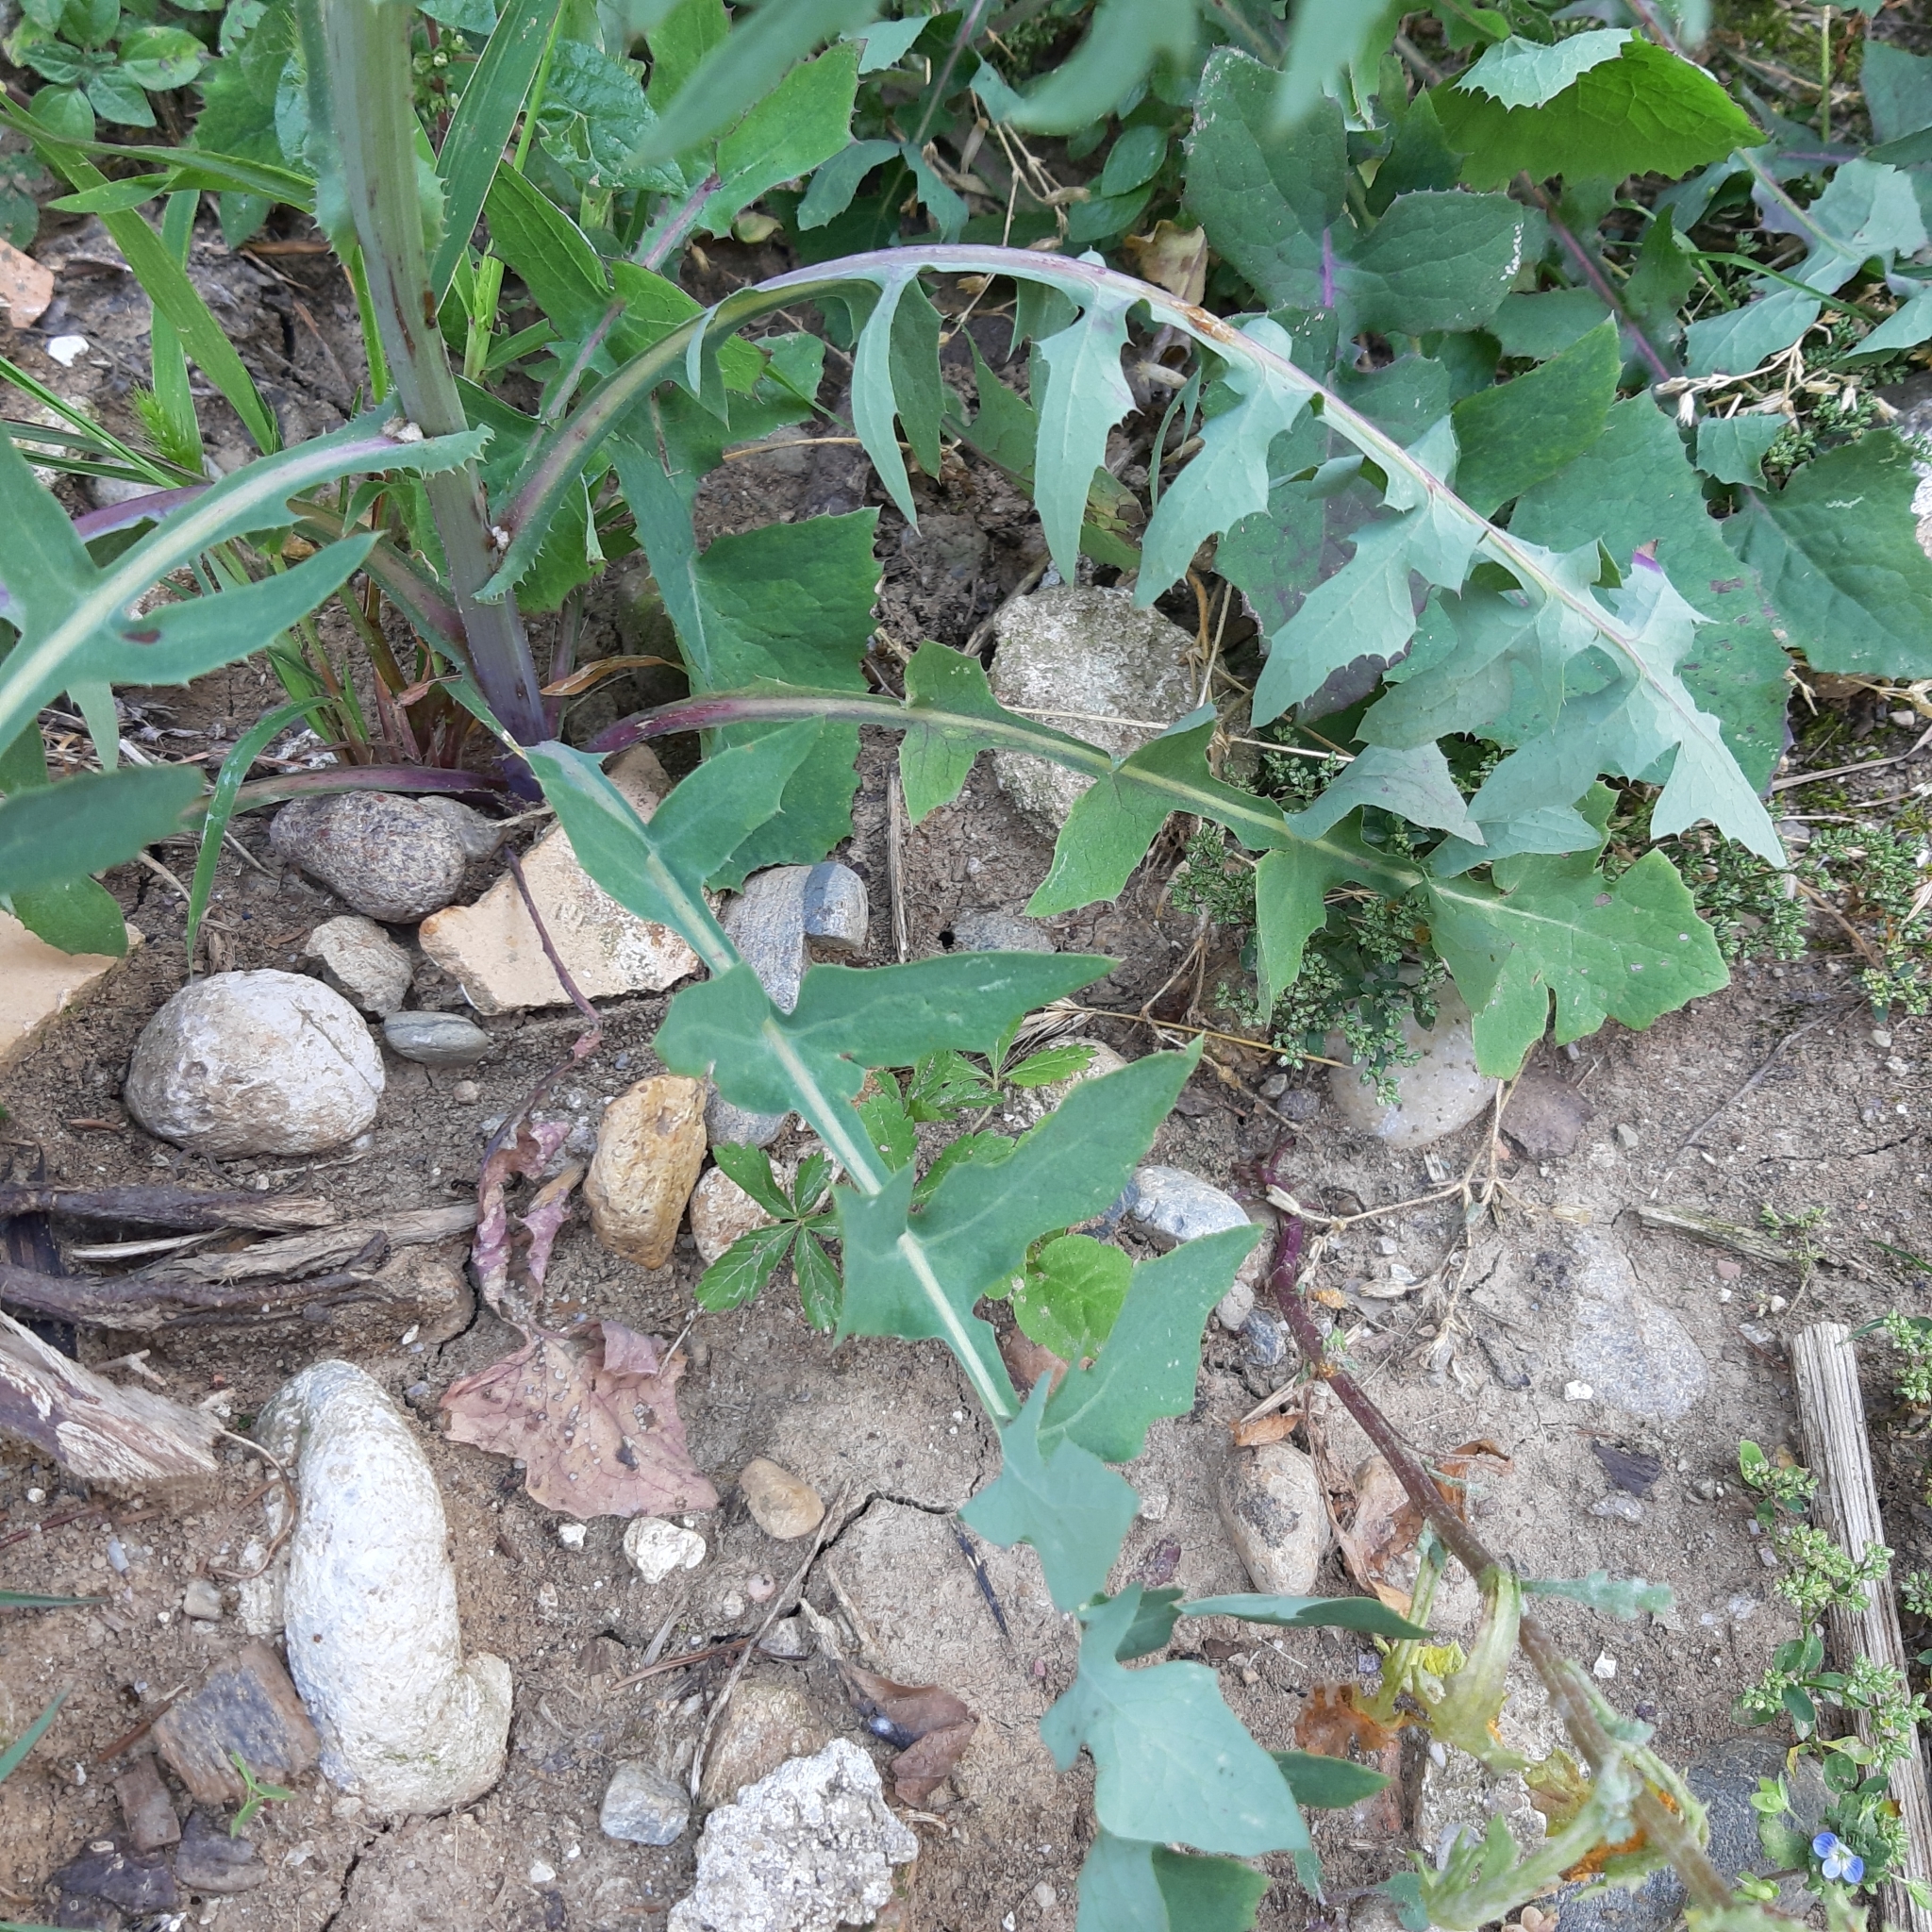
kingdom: Plantae
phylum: Tracheophyta
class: Magnoliopsida
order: Asterales
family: Asteraceae
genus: Sonchus
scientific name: Sonchus oleraceus
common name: Common sowthistle
